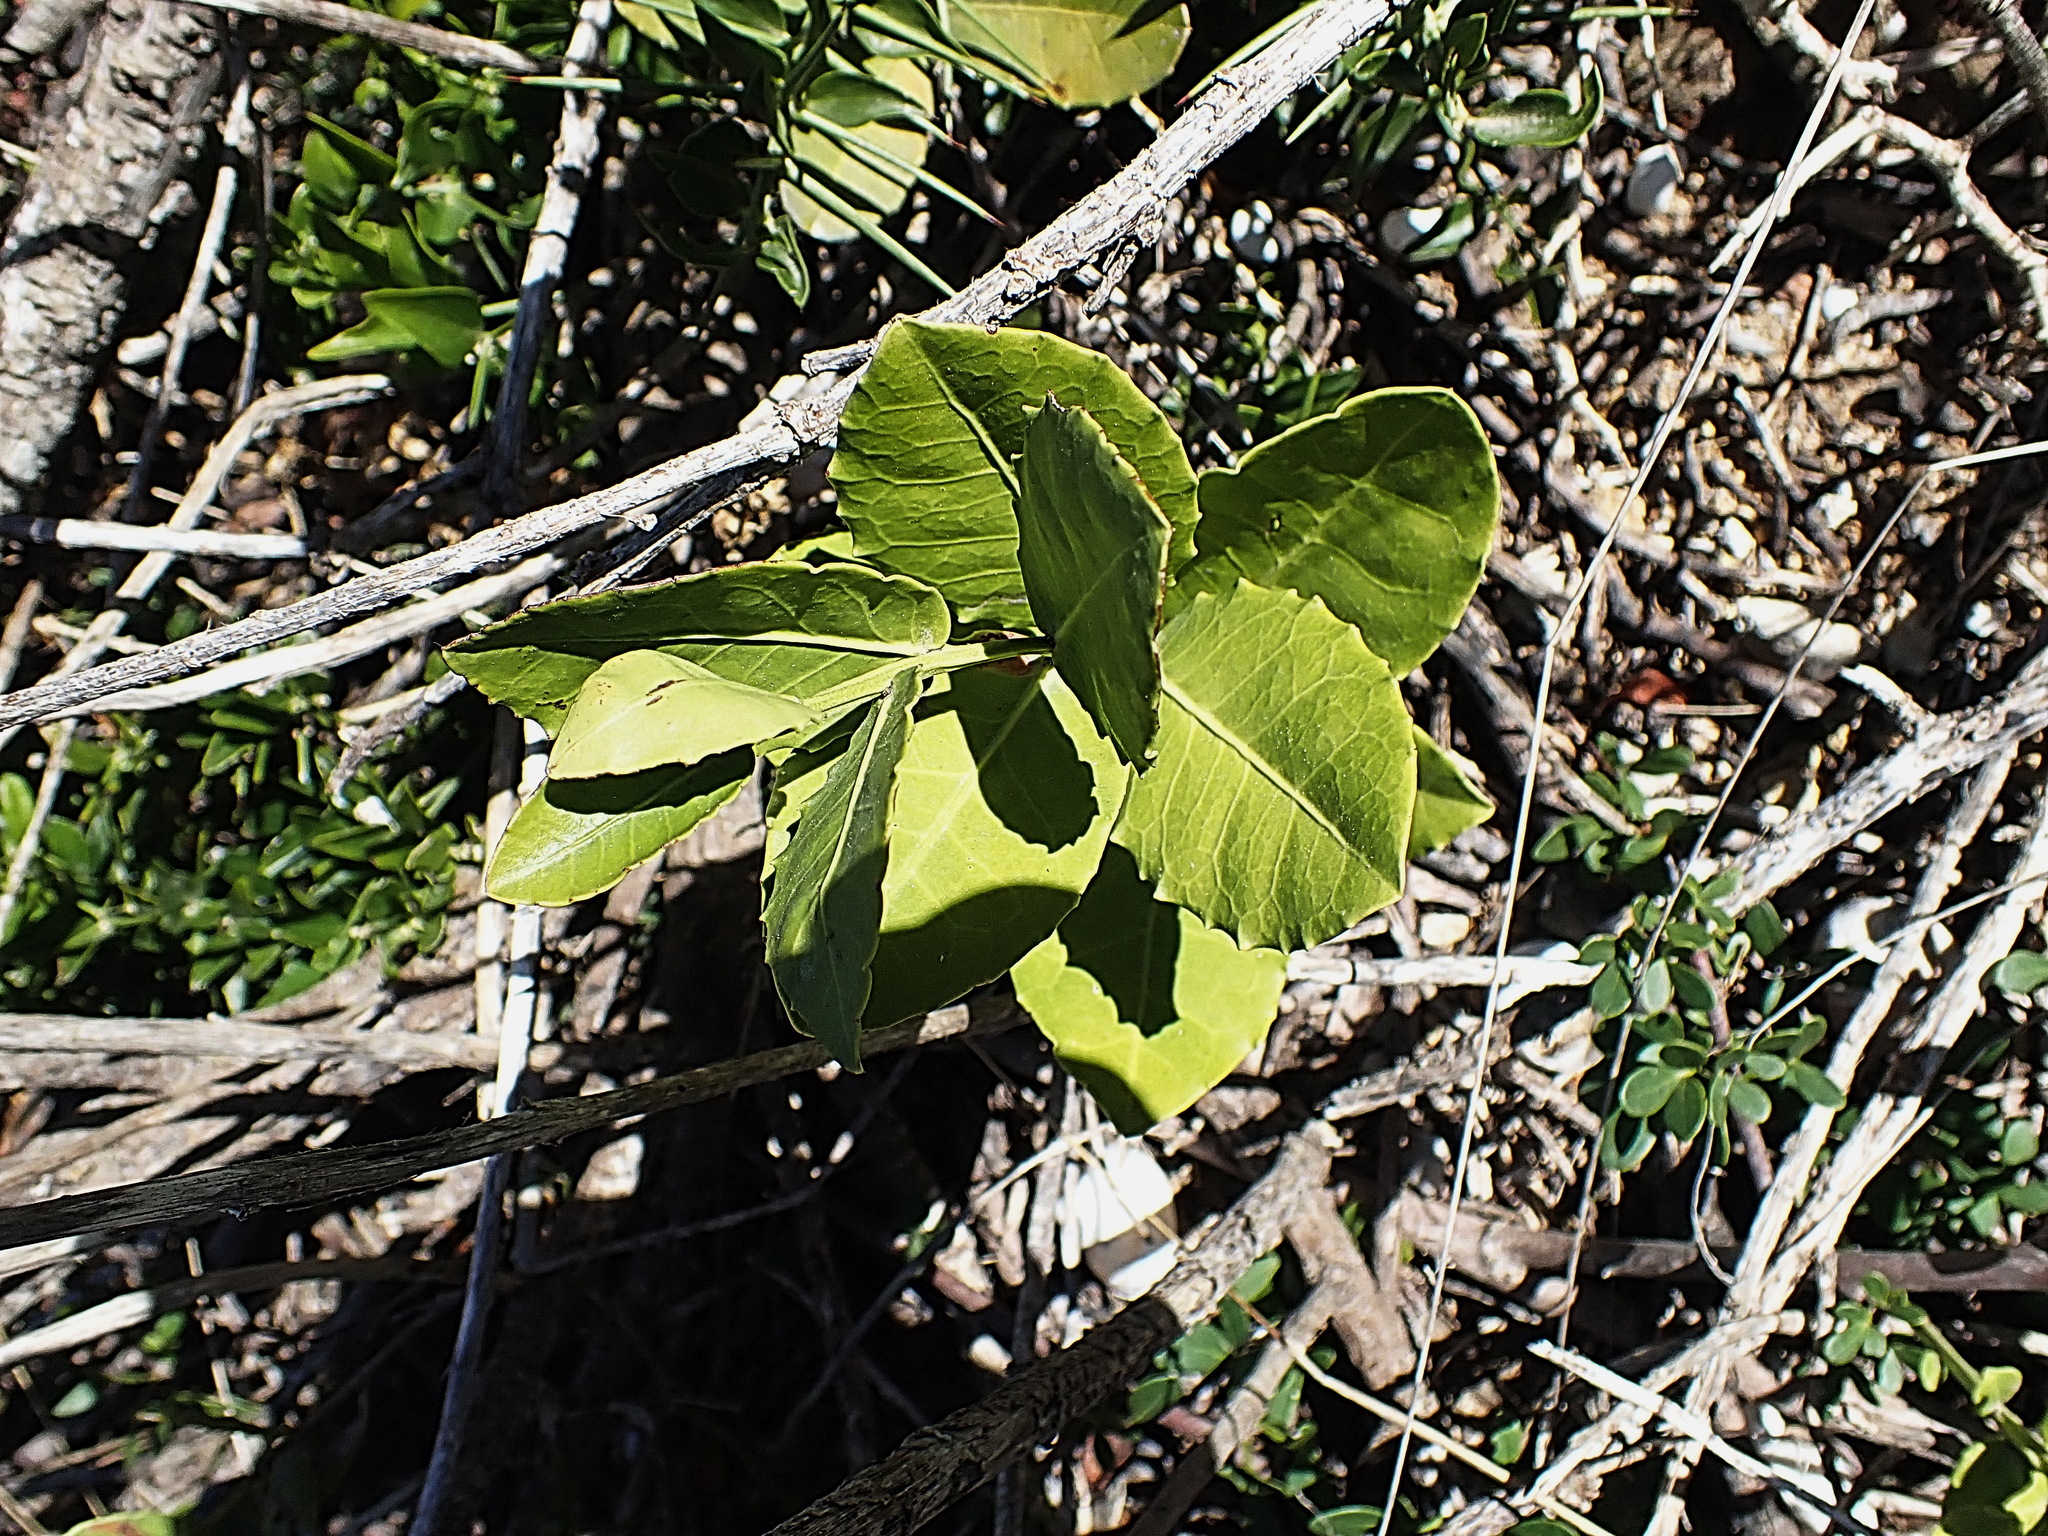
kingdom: Plantae
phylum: Tracheophyta
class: Magnoliopsida
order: Celastrales
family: Celastraceae
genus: Lauridia
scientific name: Lauridia tetragona
